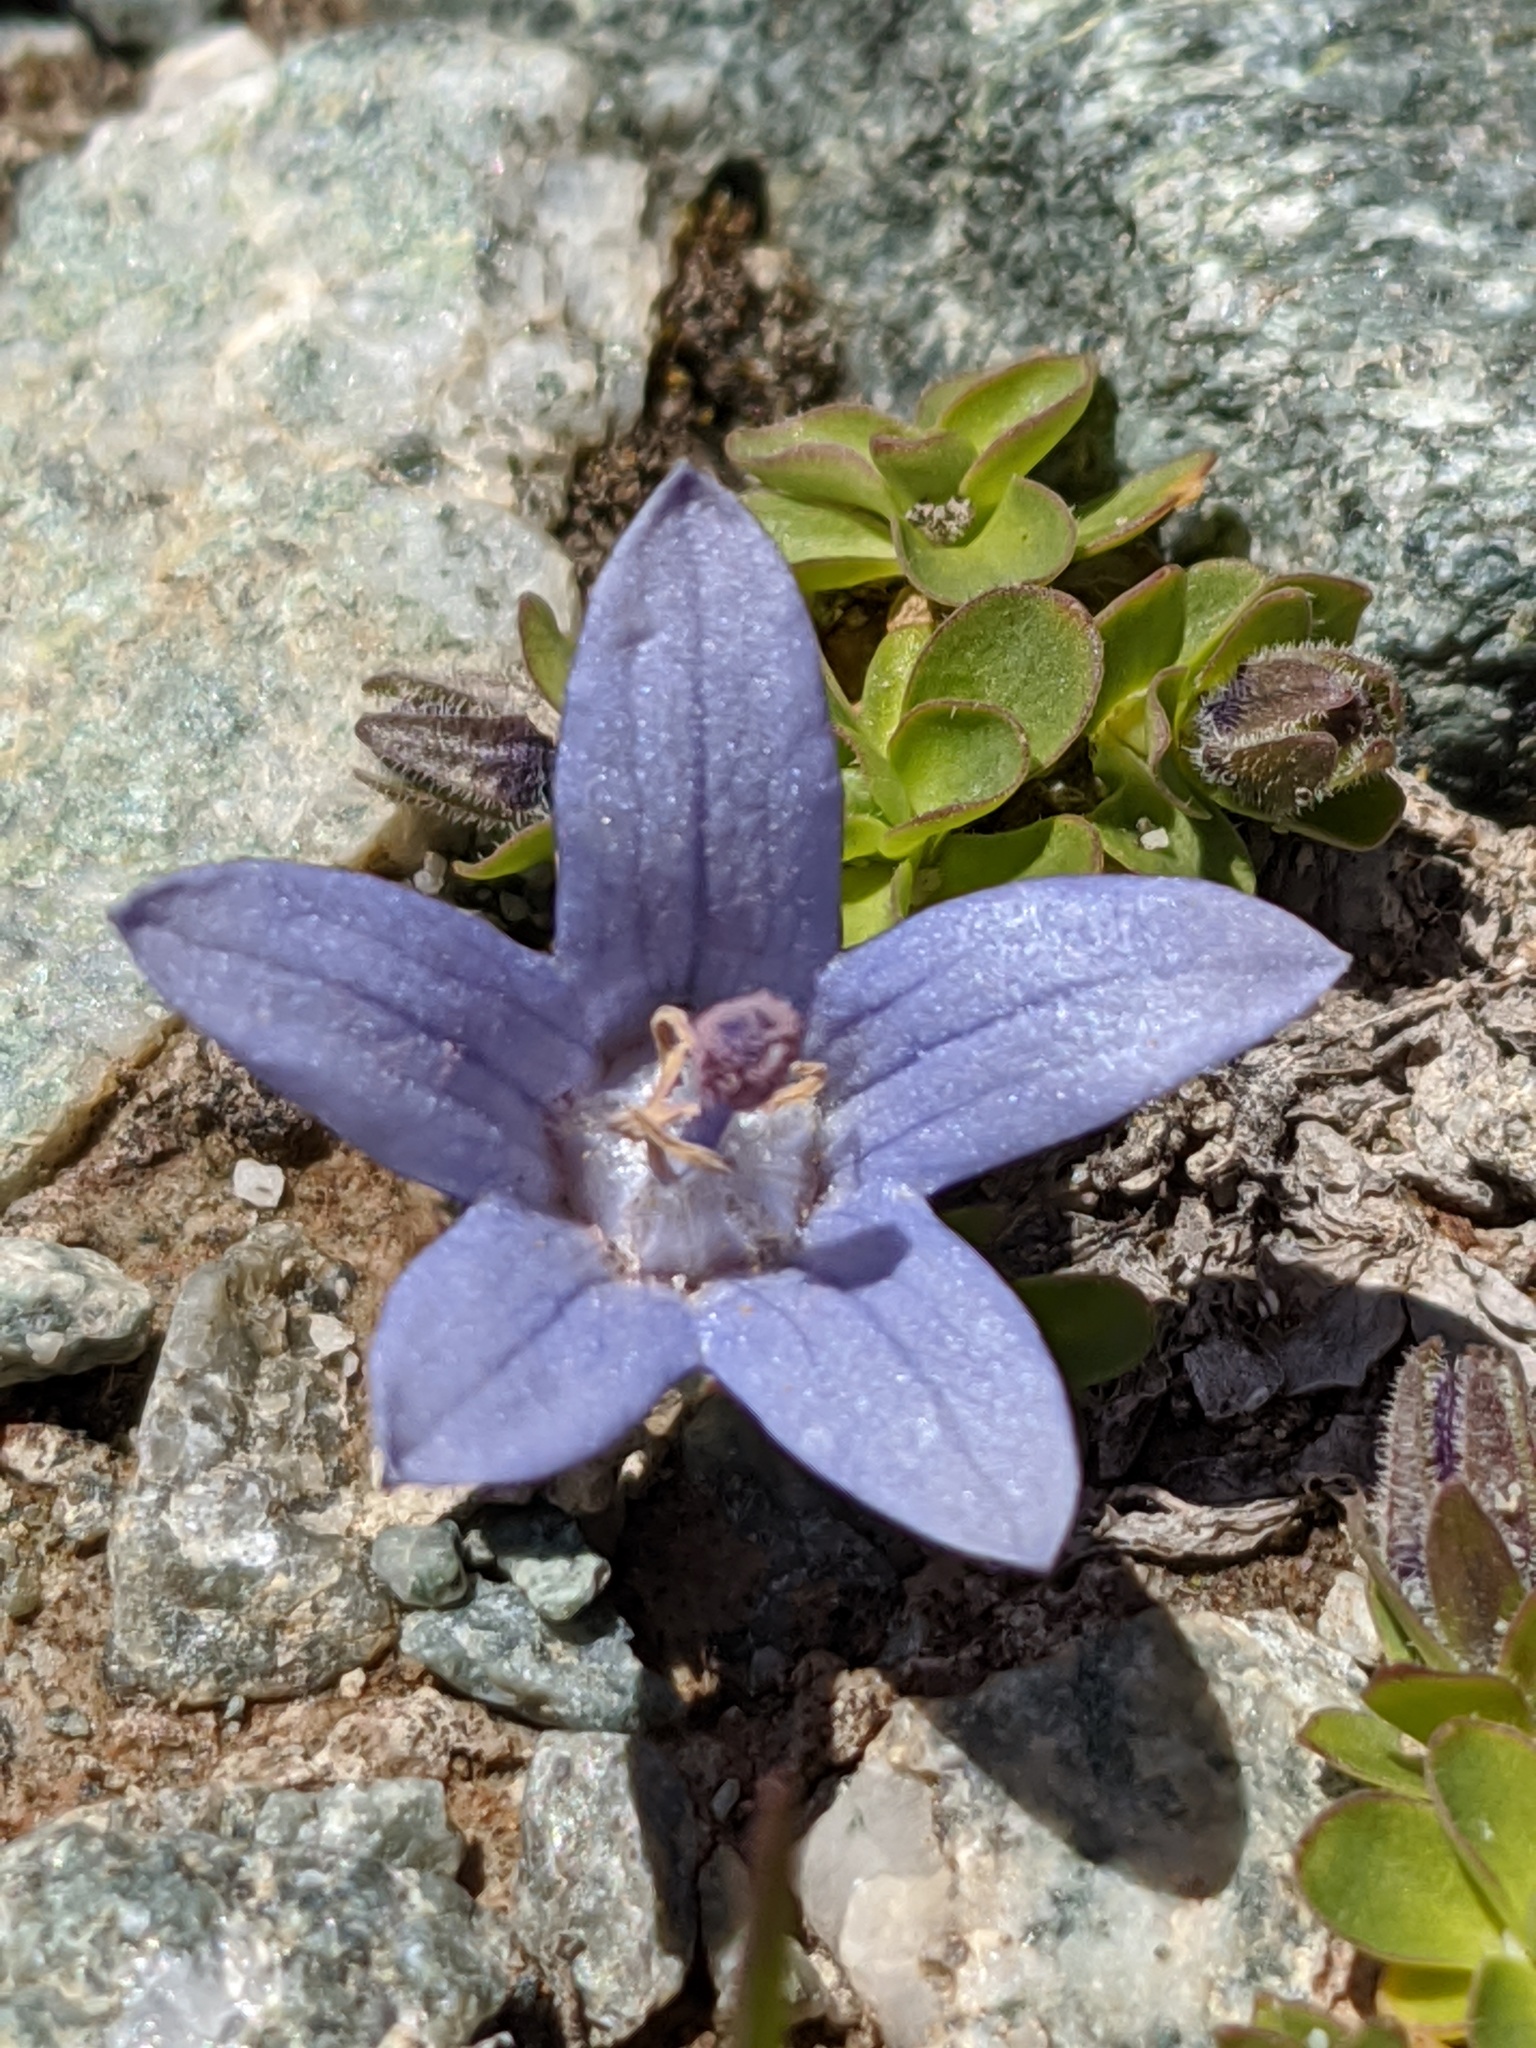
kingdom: Plantae
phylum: Tracheophyta
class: Magnoliopsida
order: Asterales
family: Campanulaceae
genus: Campanula
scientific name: Campanula cenisia
